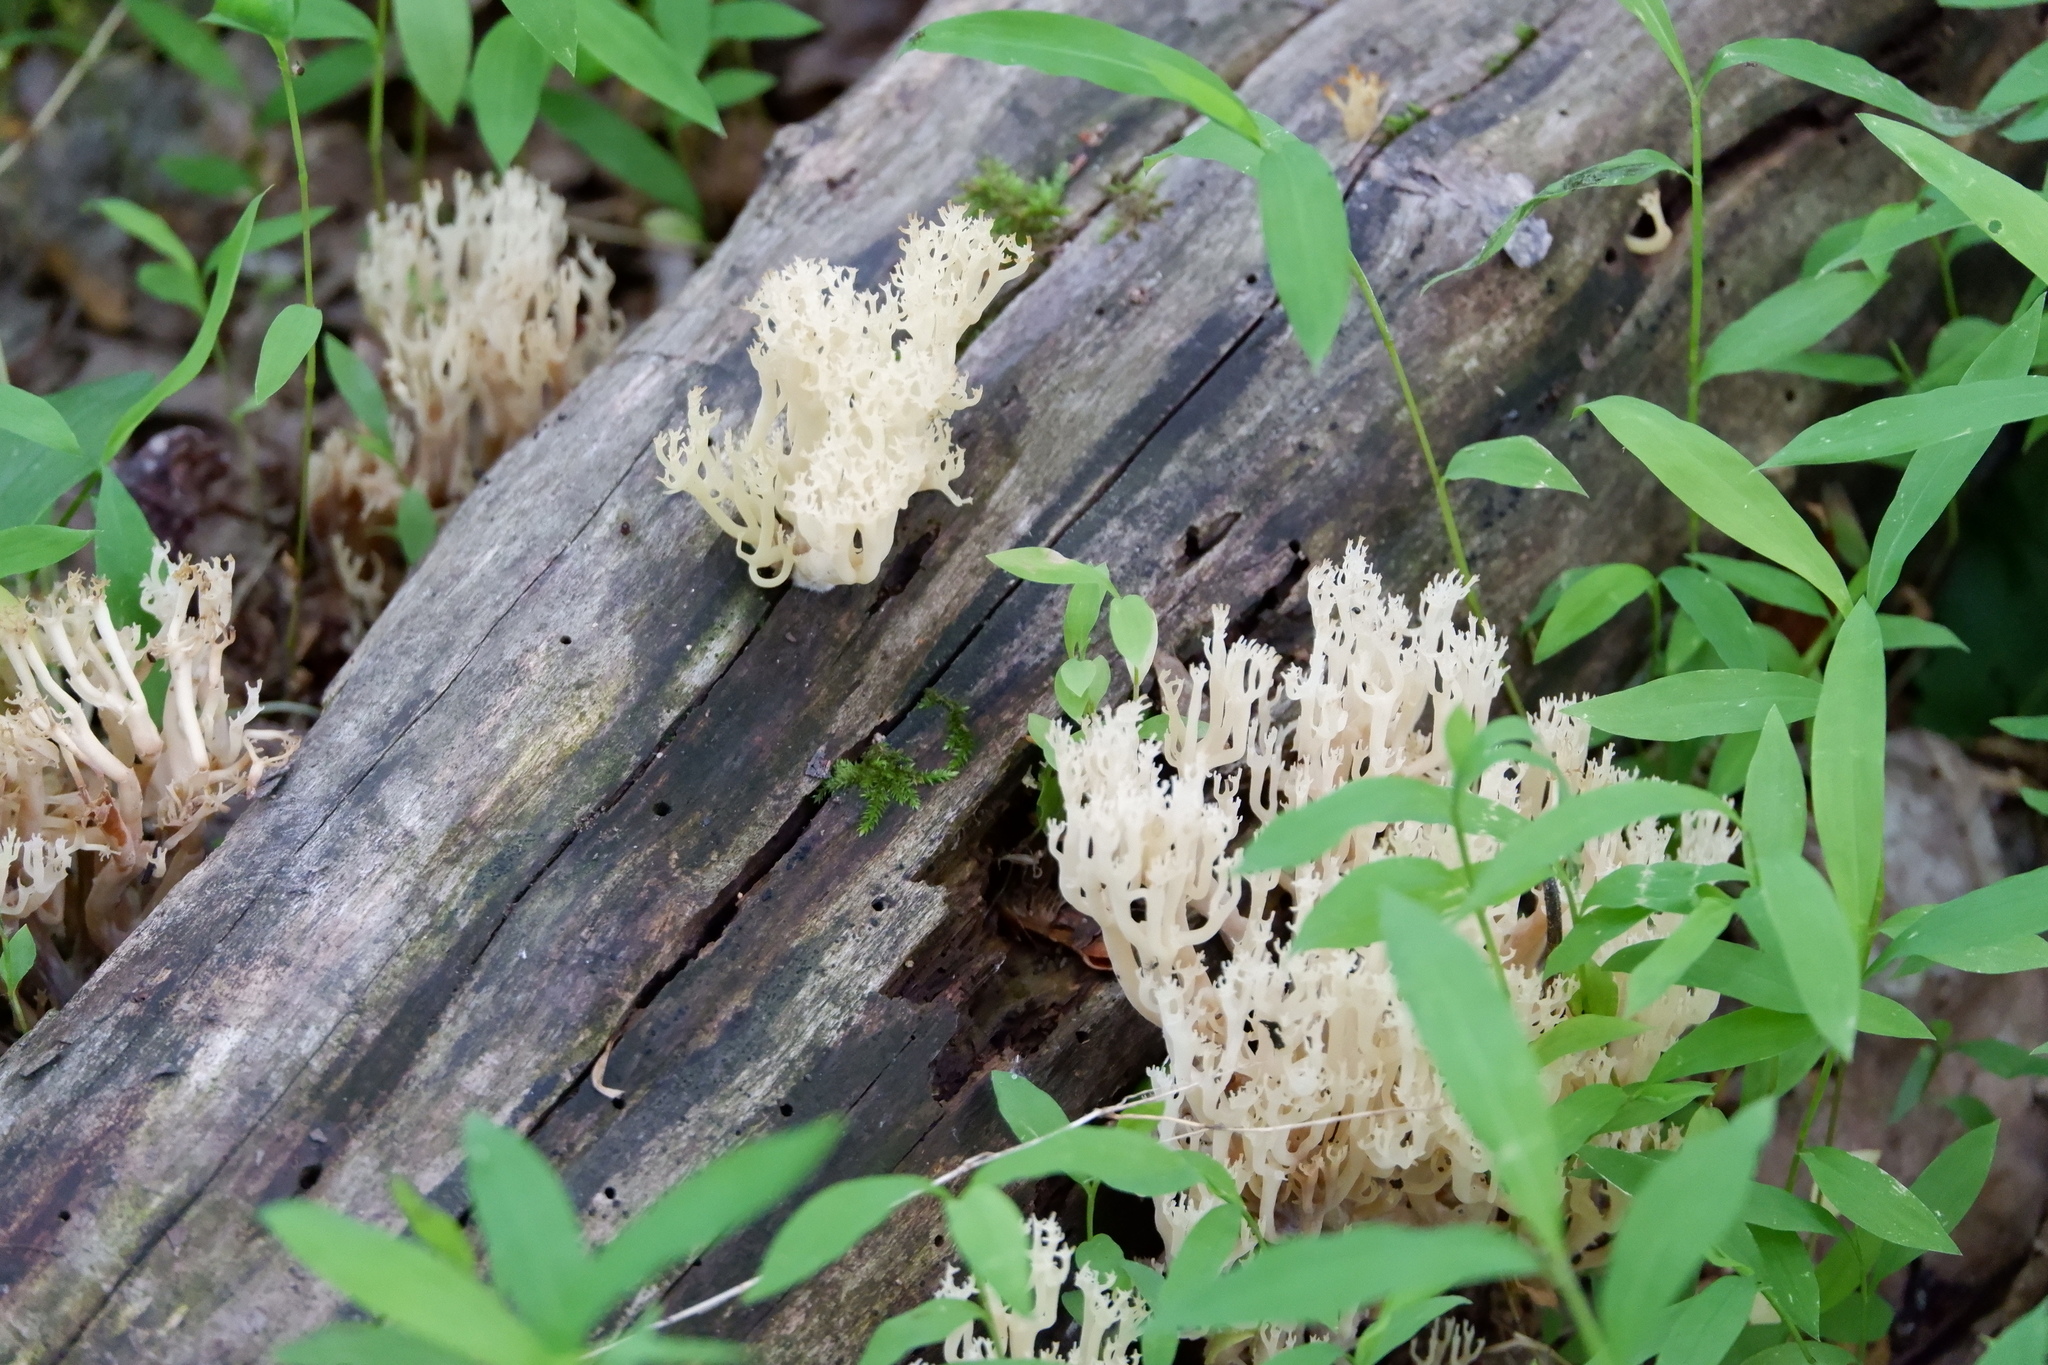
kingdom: Fungi
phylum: Basidiomycota
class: Agaricomycetes
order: Russulales
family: Auriscalpiaceae
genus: Artomyces
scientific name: Artomyces pyxidatus
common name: Crown-tipped coral fungus
